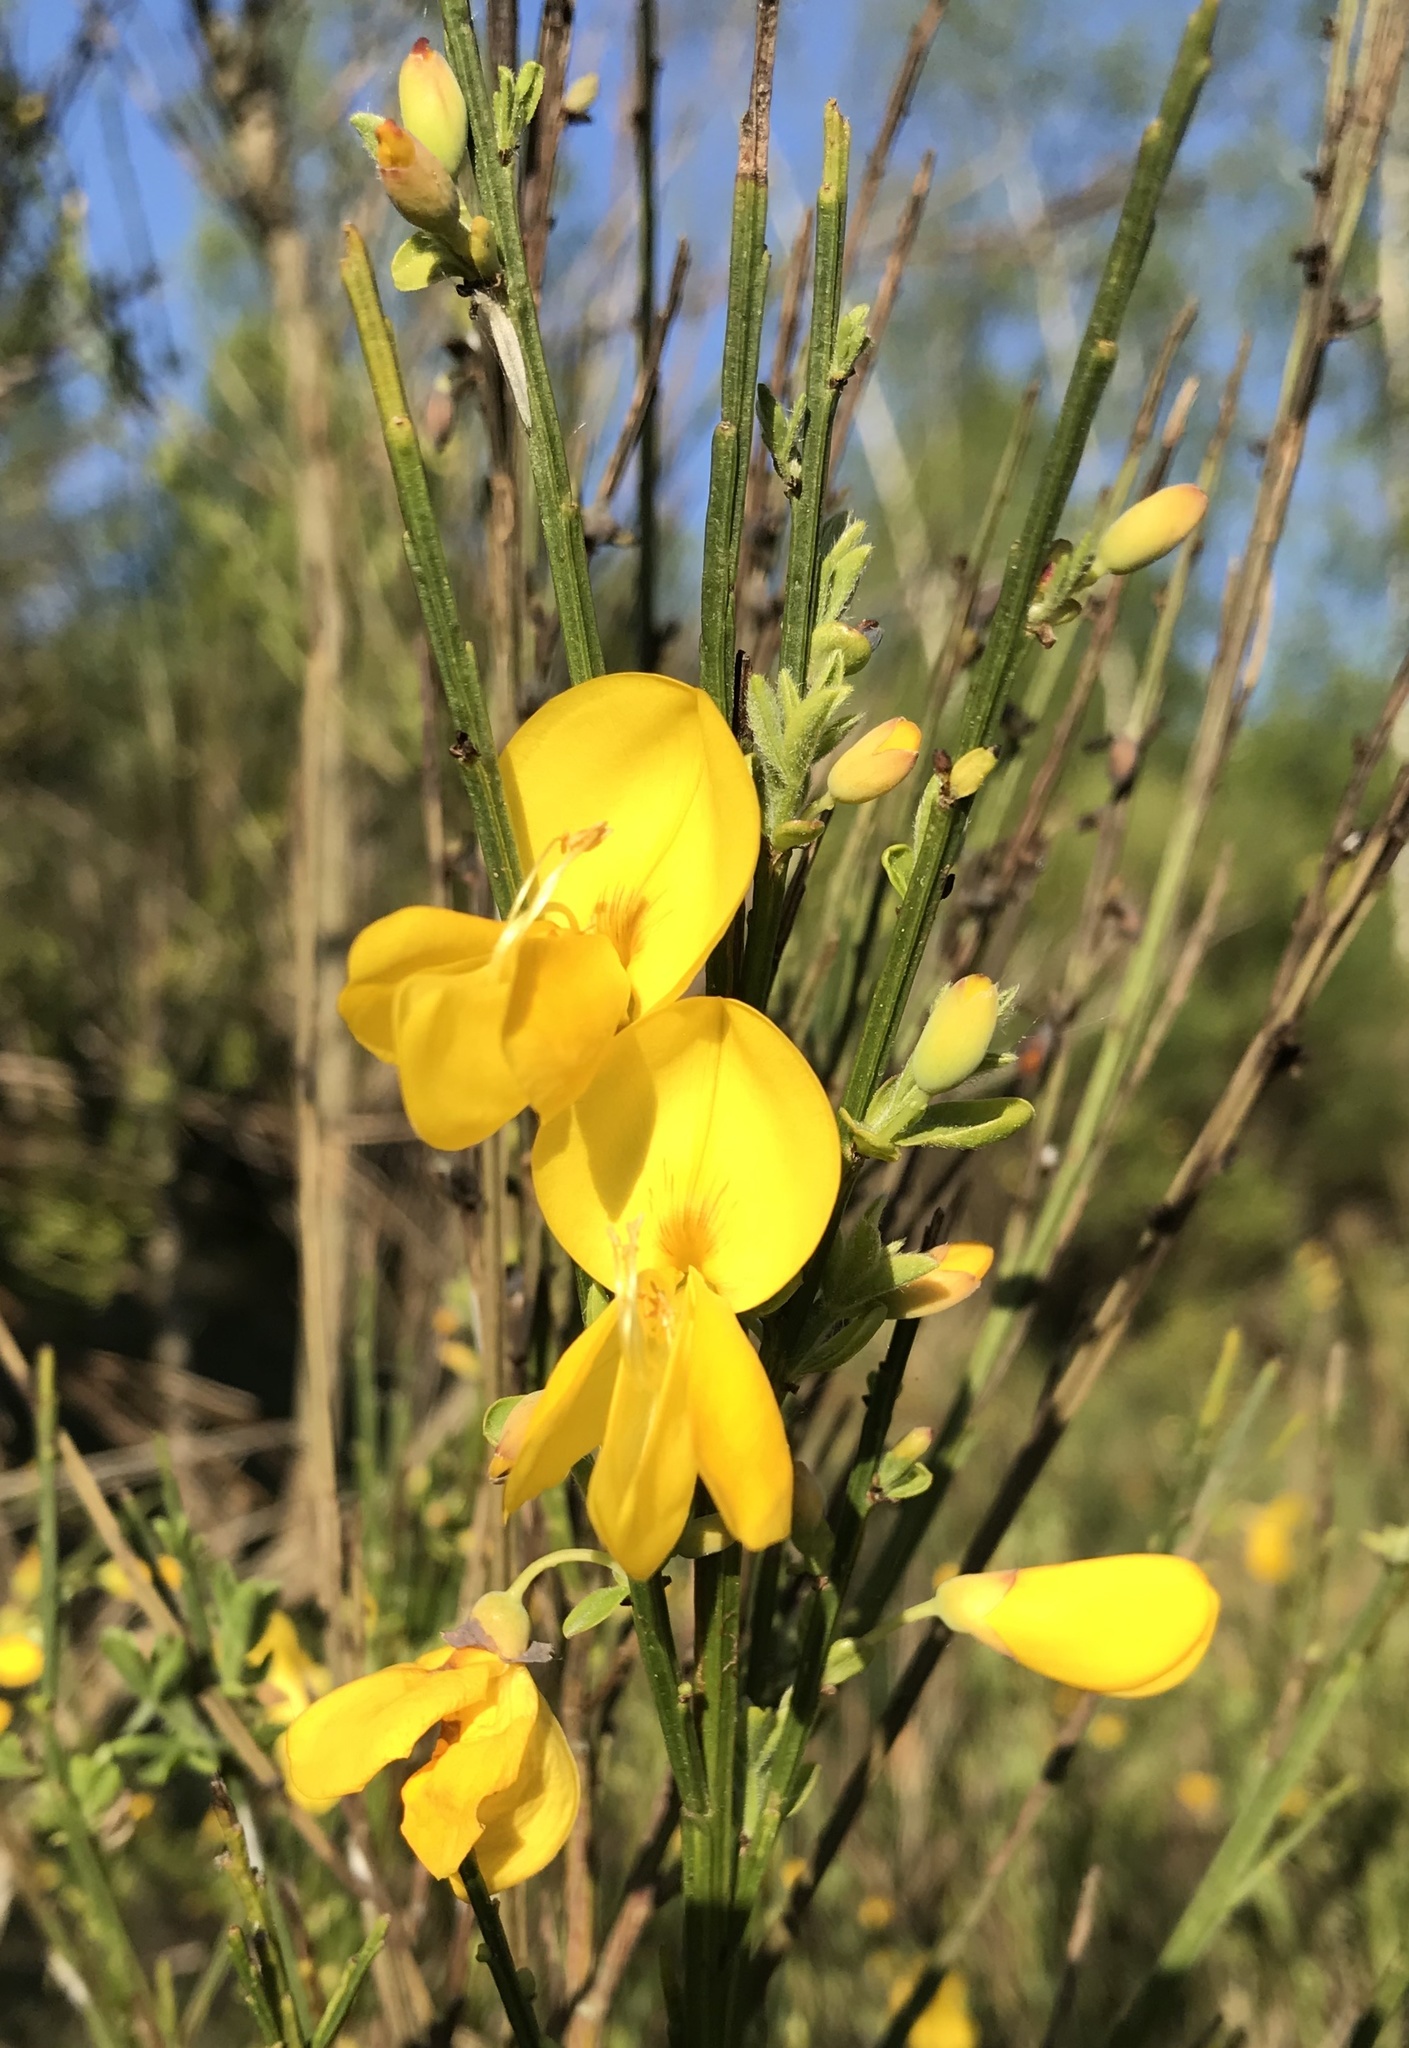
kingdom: Plantae
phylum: Tracheophyta
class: Magnoliopsida
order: Fabales
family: Fabaceae
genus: Cytisus
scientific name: Cytisus scoparius
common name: Scotch broom
